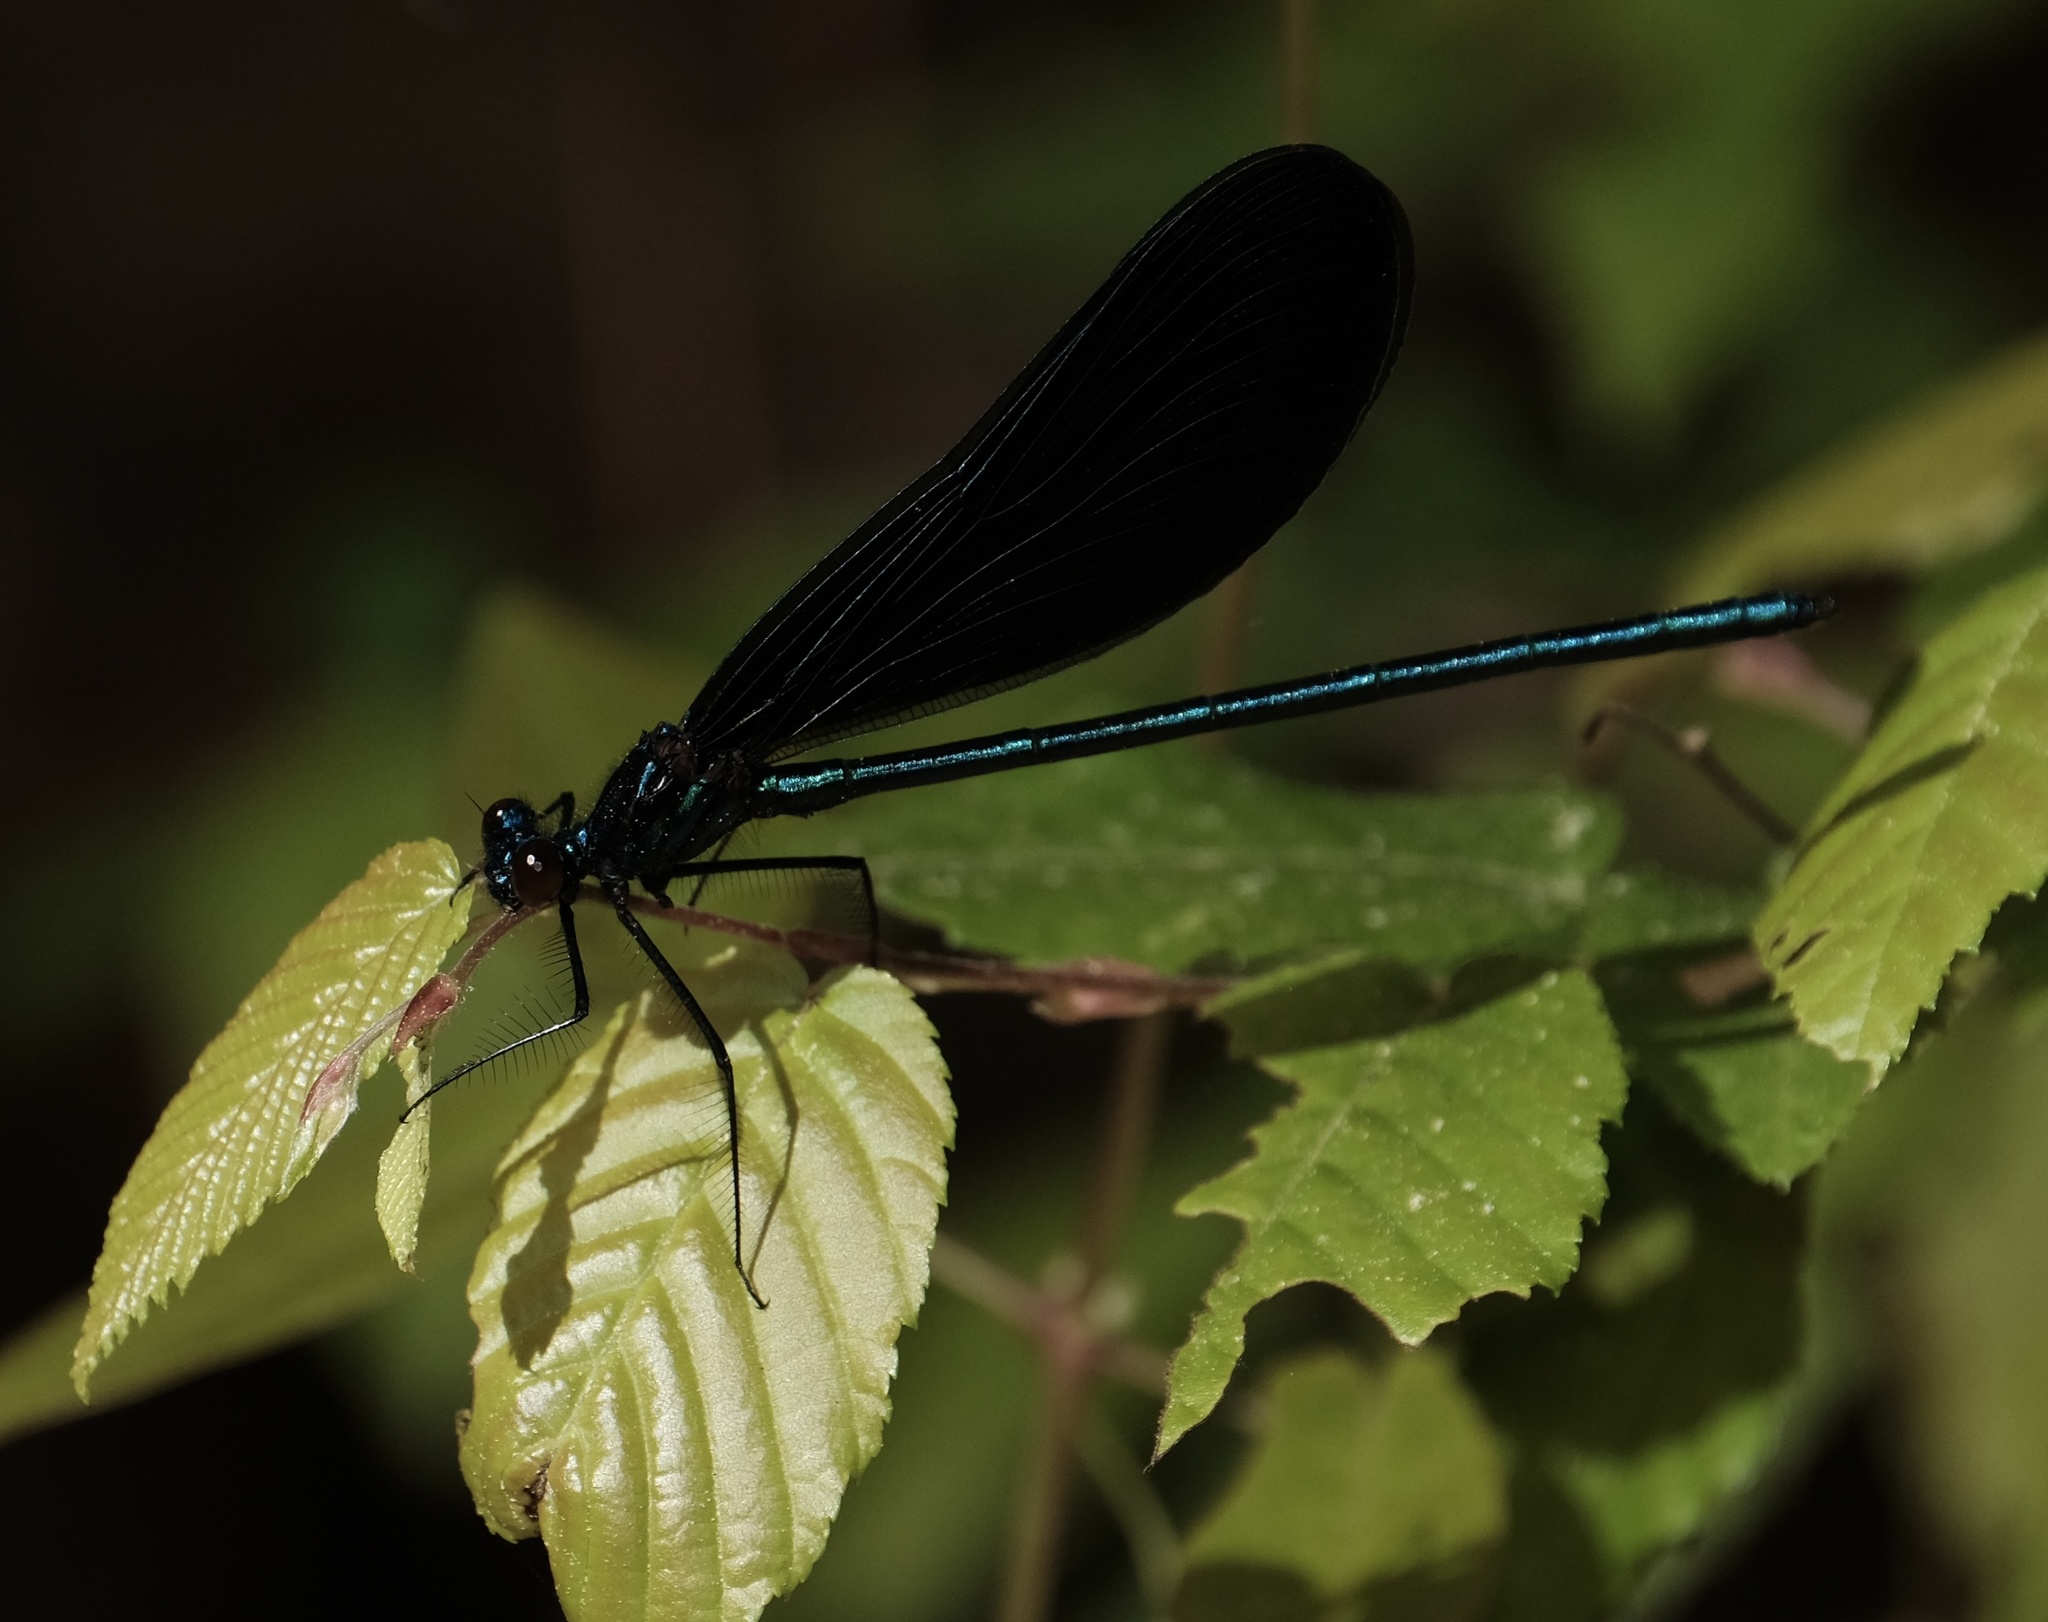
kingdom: Animalia
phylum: Arthropoda
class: Insecta
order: Odonata
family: Calopterygidae
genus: Calopteryx
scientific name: Calopteryx maculata
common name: Ebony jewelwing
